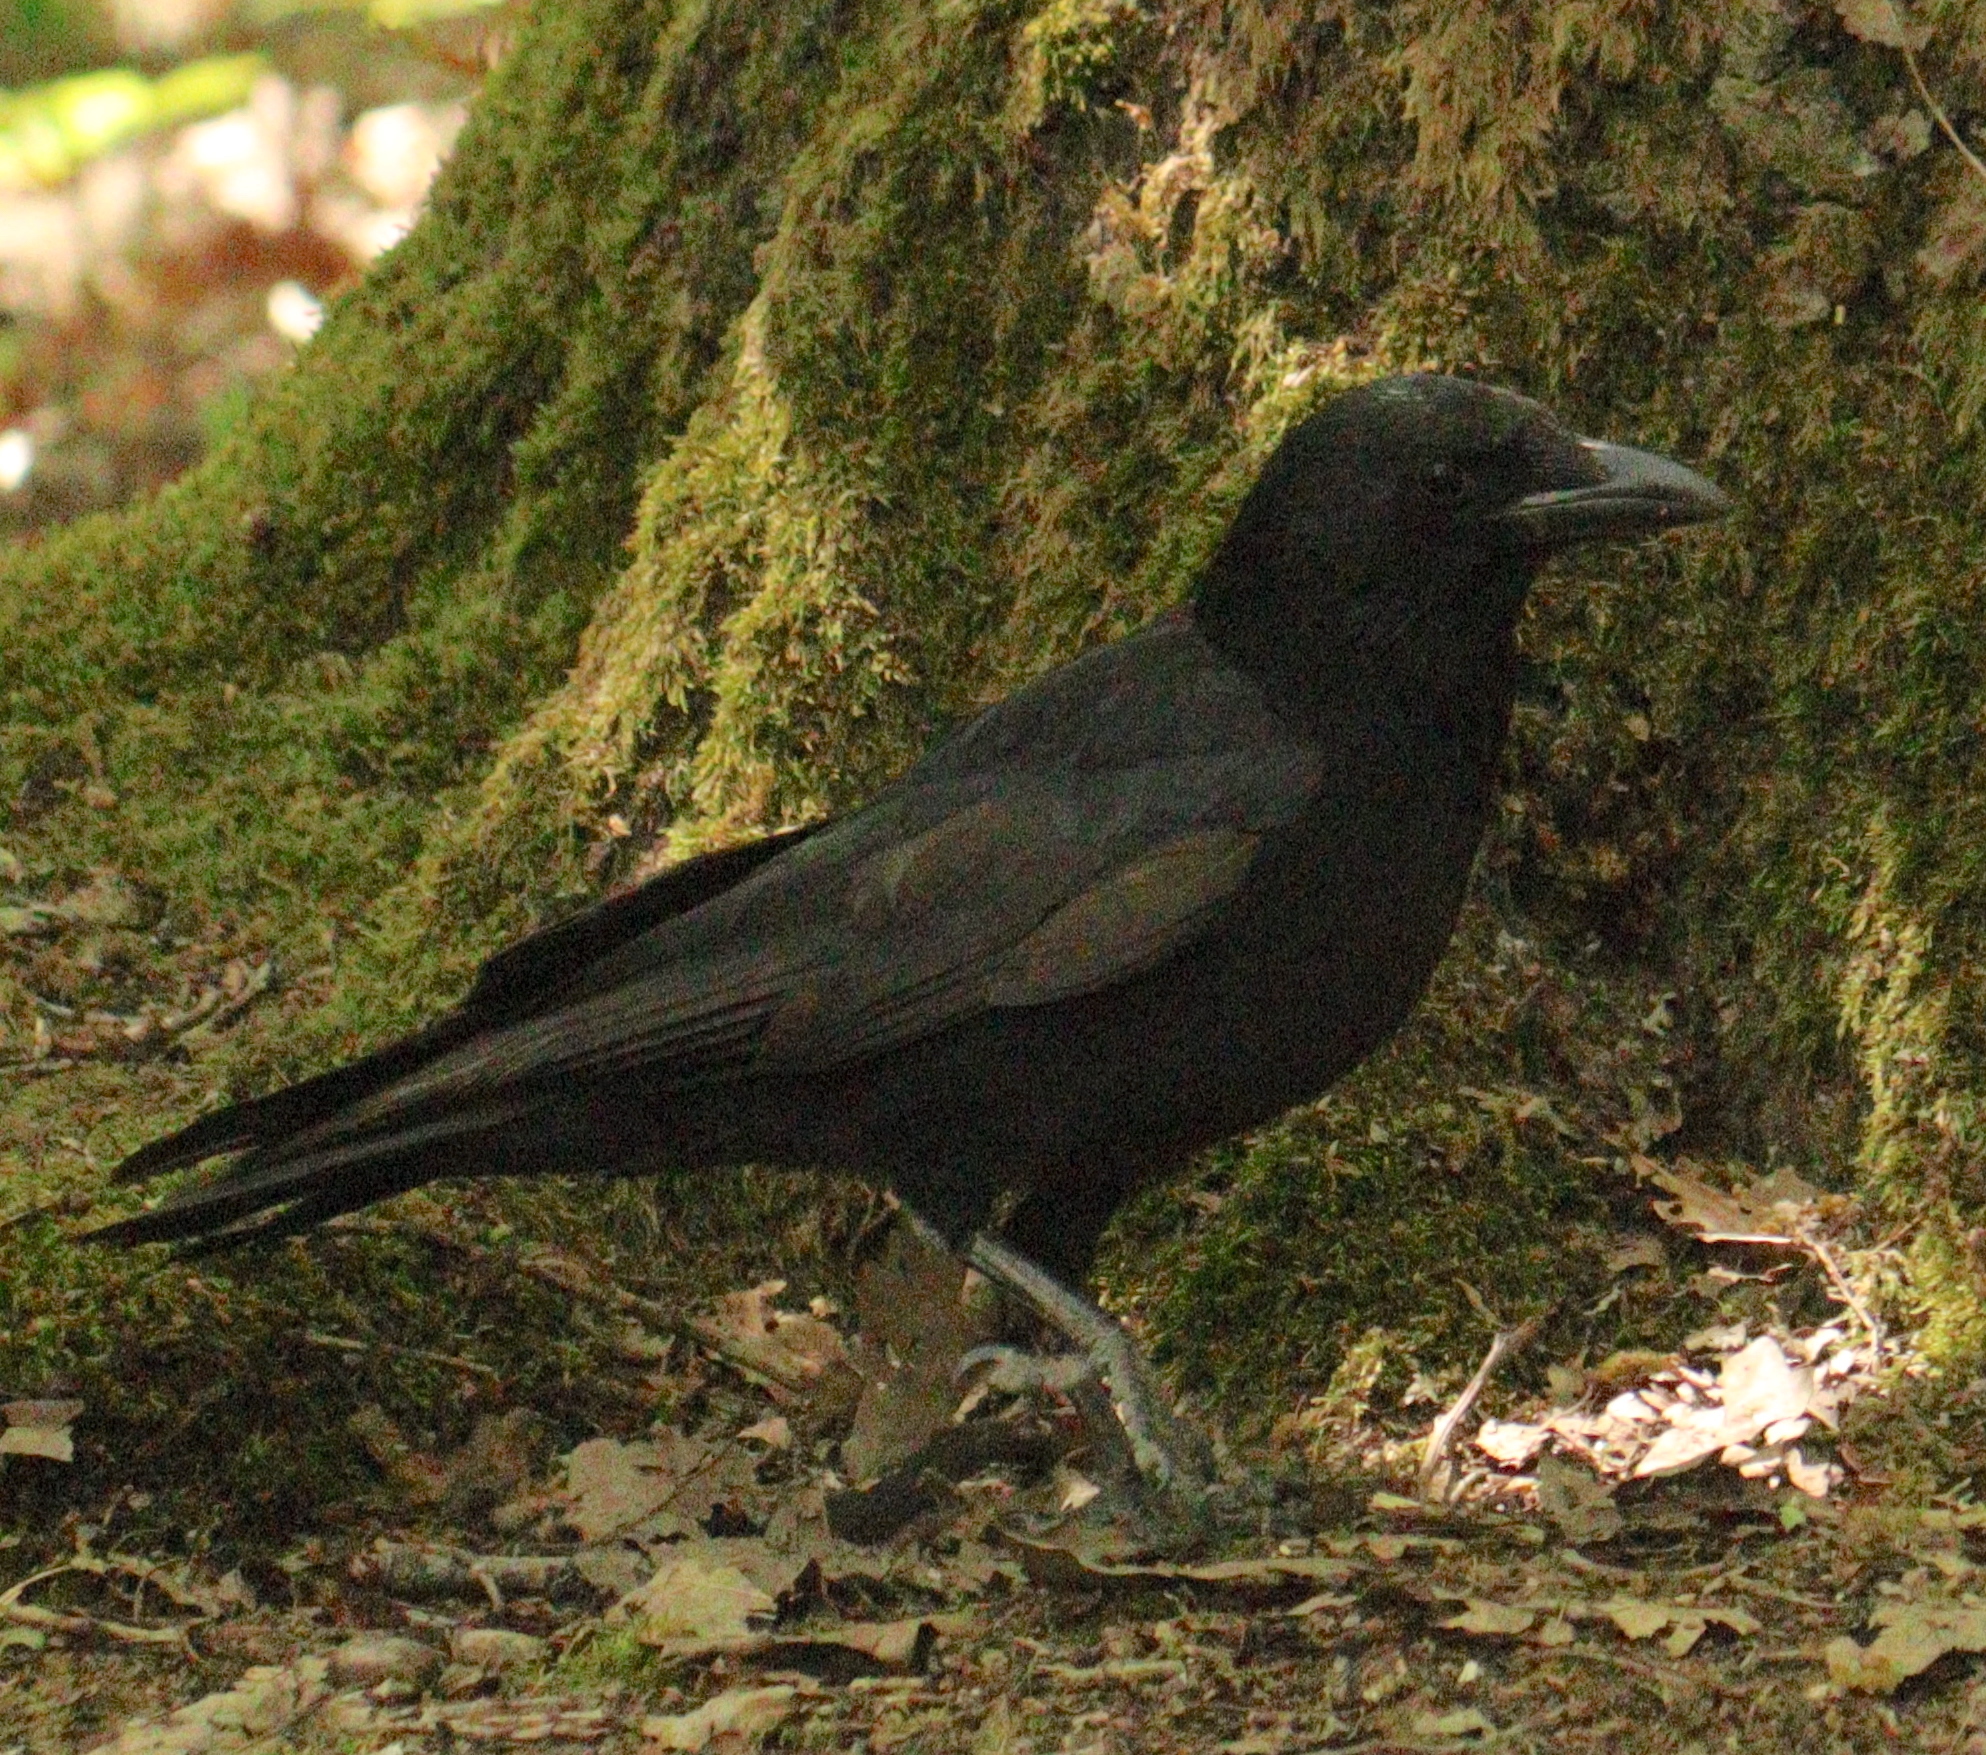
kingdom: Animalia
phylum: Chordata
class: Aves
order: Passeriformes
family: Corvidae
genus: Corvus
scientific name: Corvus corone
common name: Carrion crow
